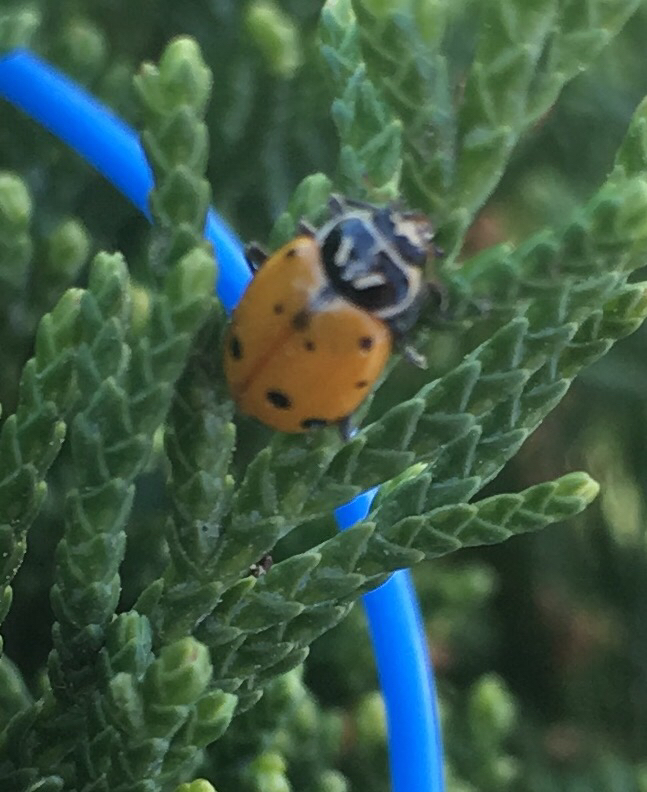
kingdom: Animalia
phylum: Arthropoda
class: Insecta
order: Coleoptera
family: Coccinellidae
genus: Hippodamia
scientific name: Hippodamia convergens
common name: Convergent lady beetle
